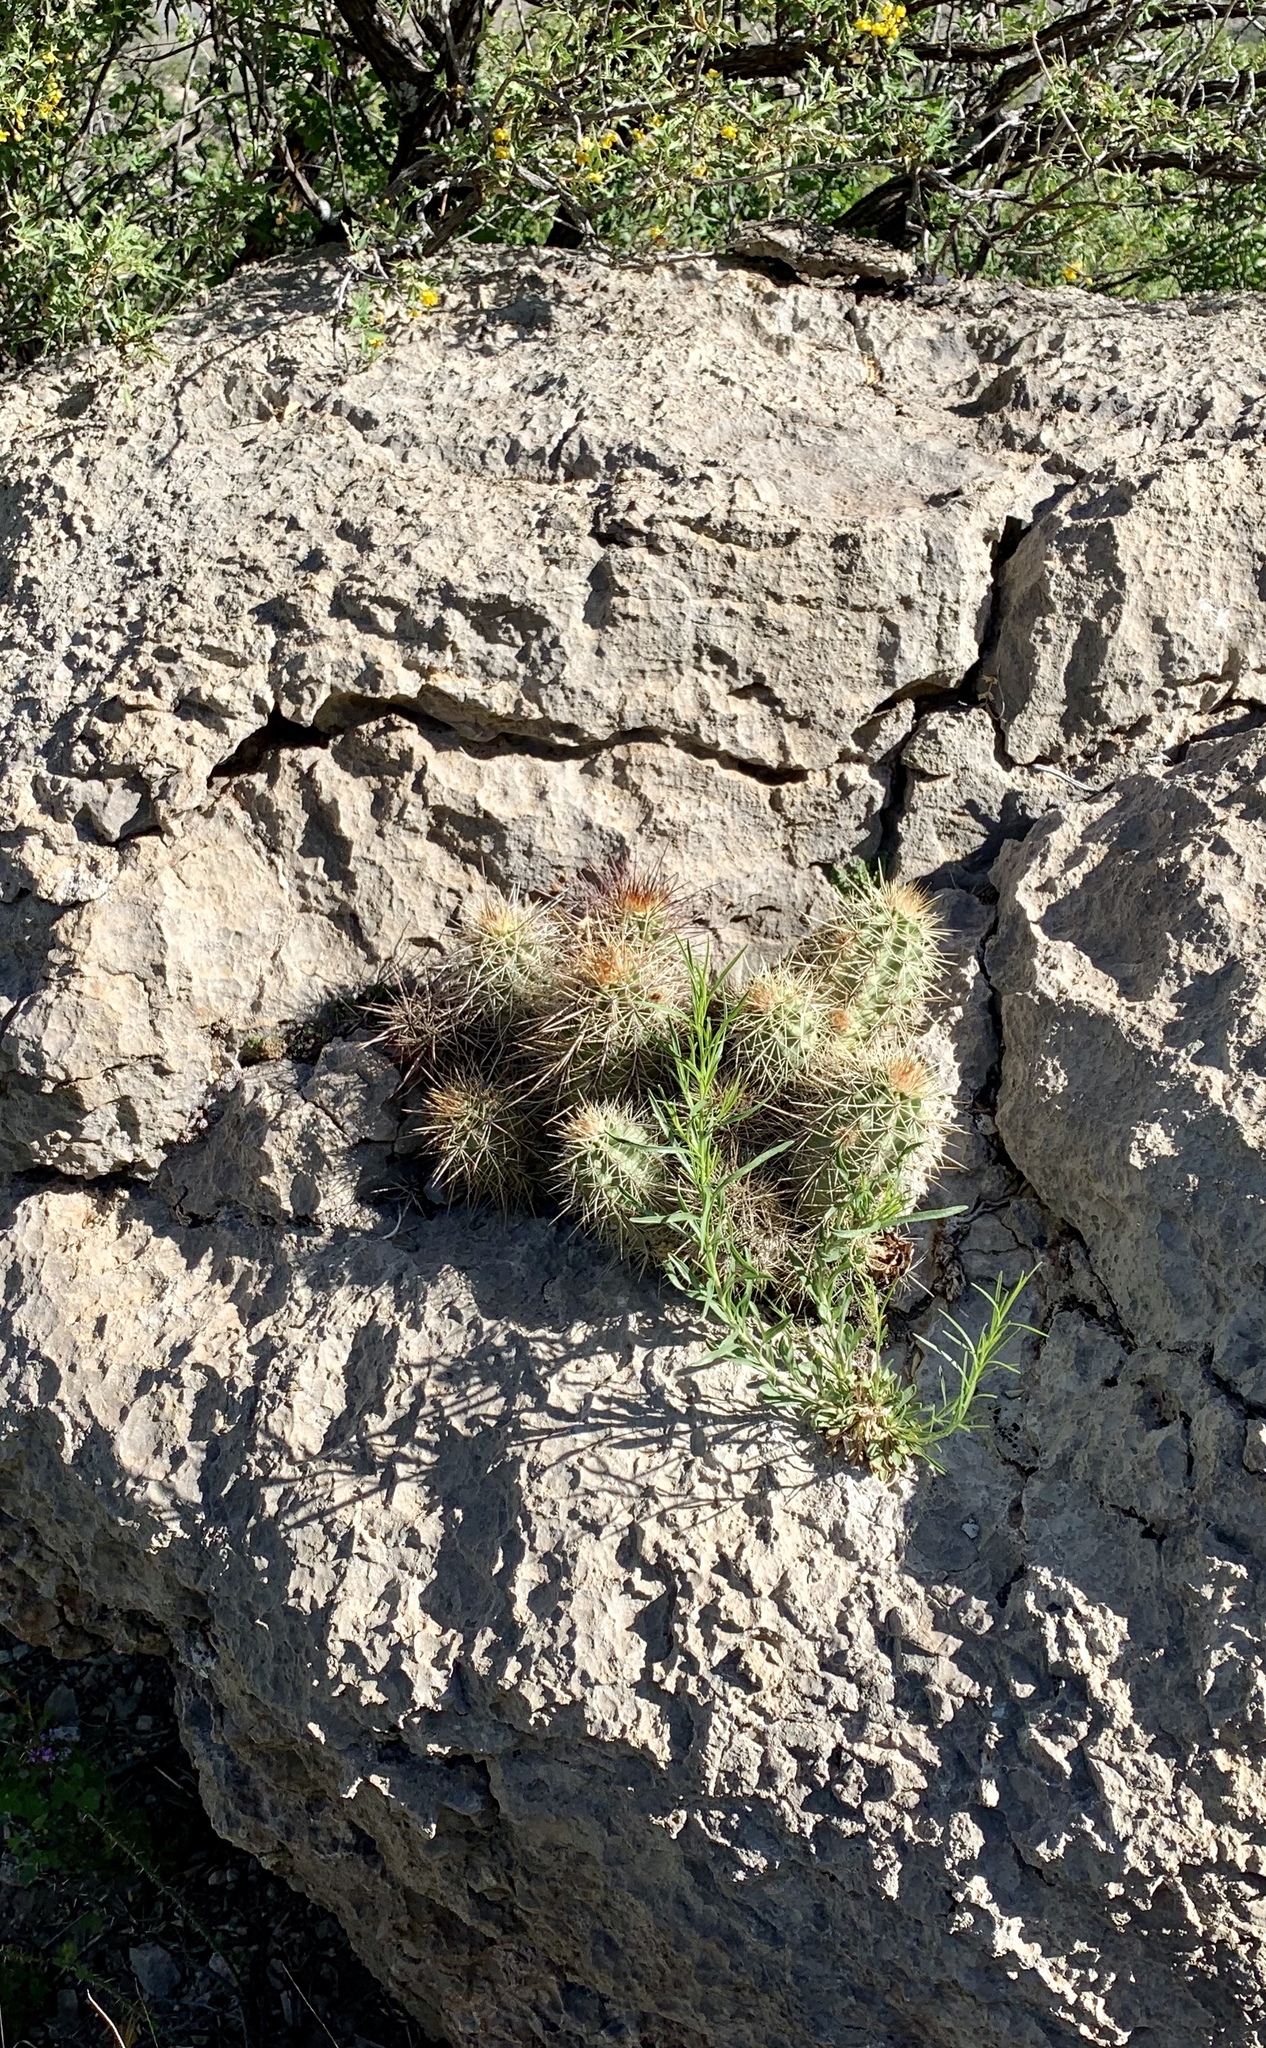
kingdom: Plantae
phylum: Tracheophyta
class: Magnoliopsida
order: Caryophyllales
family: Cactaceae
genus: Echinocereus
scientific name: Echinocereus coccineus
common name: Scarlet hedgehog cactus
